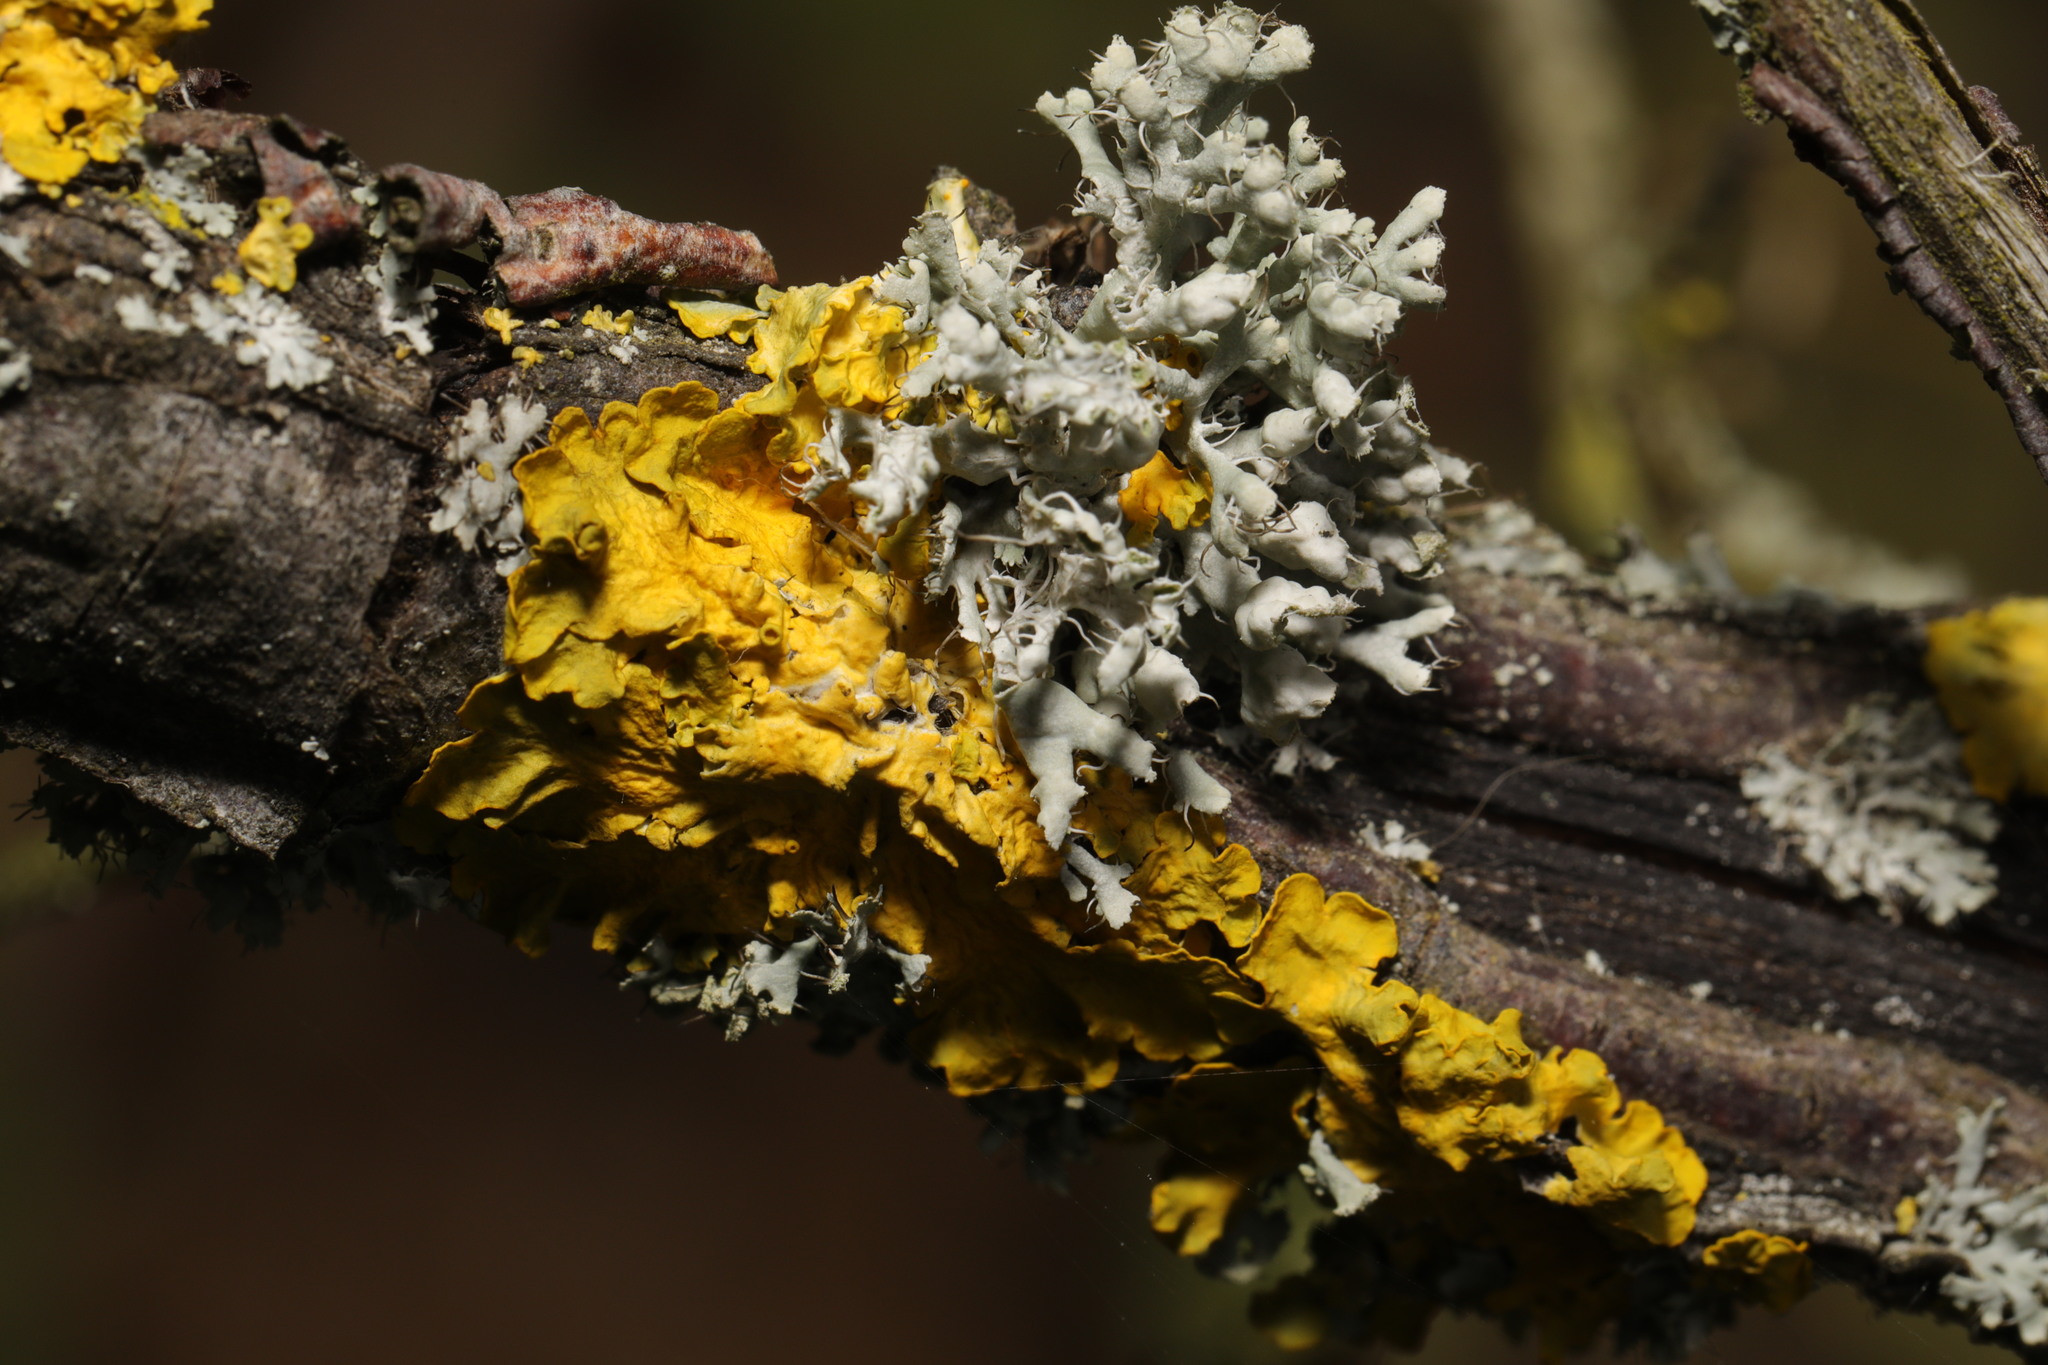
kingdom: Fungi
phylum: Ascomycota
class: Lecanoromycetes
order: Caliciales
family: Physciaceae
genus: Physcia
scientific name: Physcia adscendens
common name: Hooded rosette lichen
